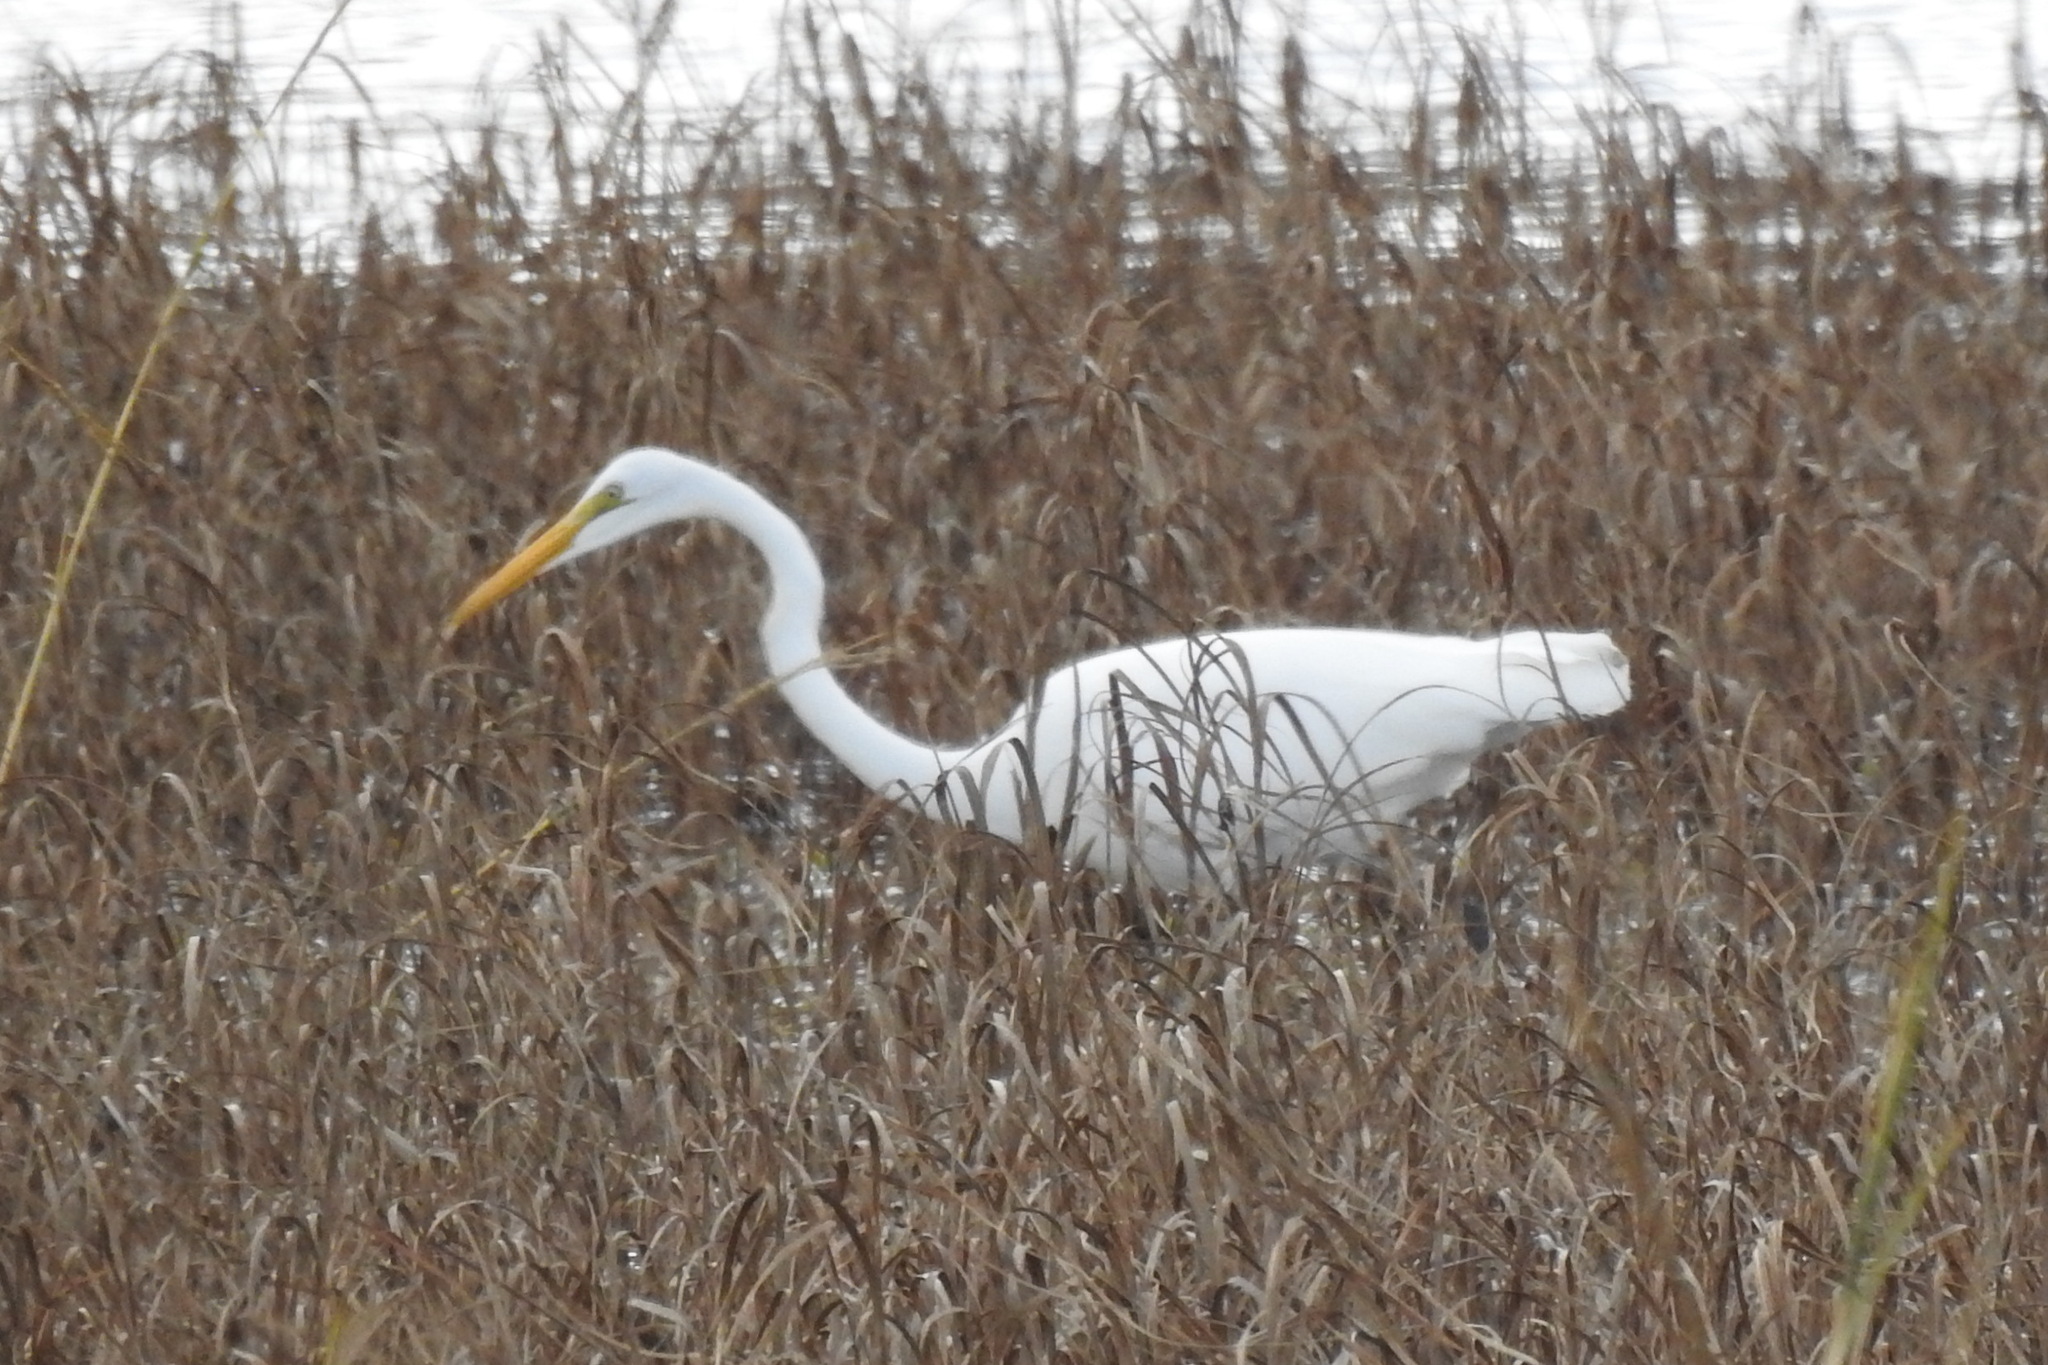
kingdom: Animalia
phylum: Chordata
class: Aves
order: Pelecaniformes
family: Ardeidae
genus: Ardea
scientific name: Ardea alba
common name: Great egret
